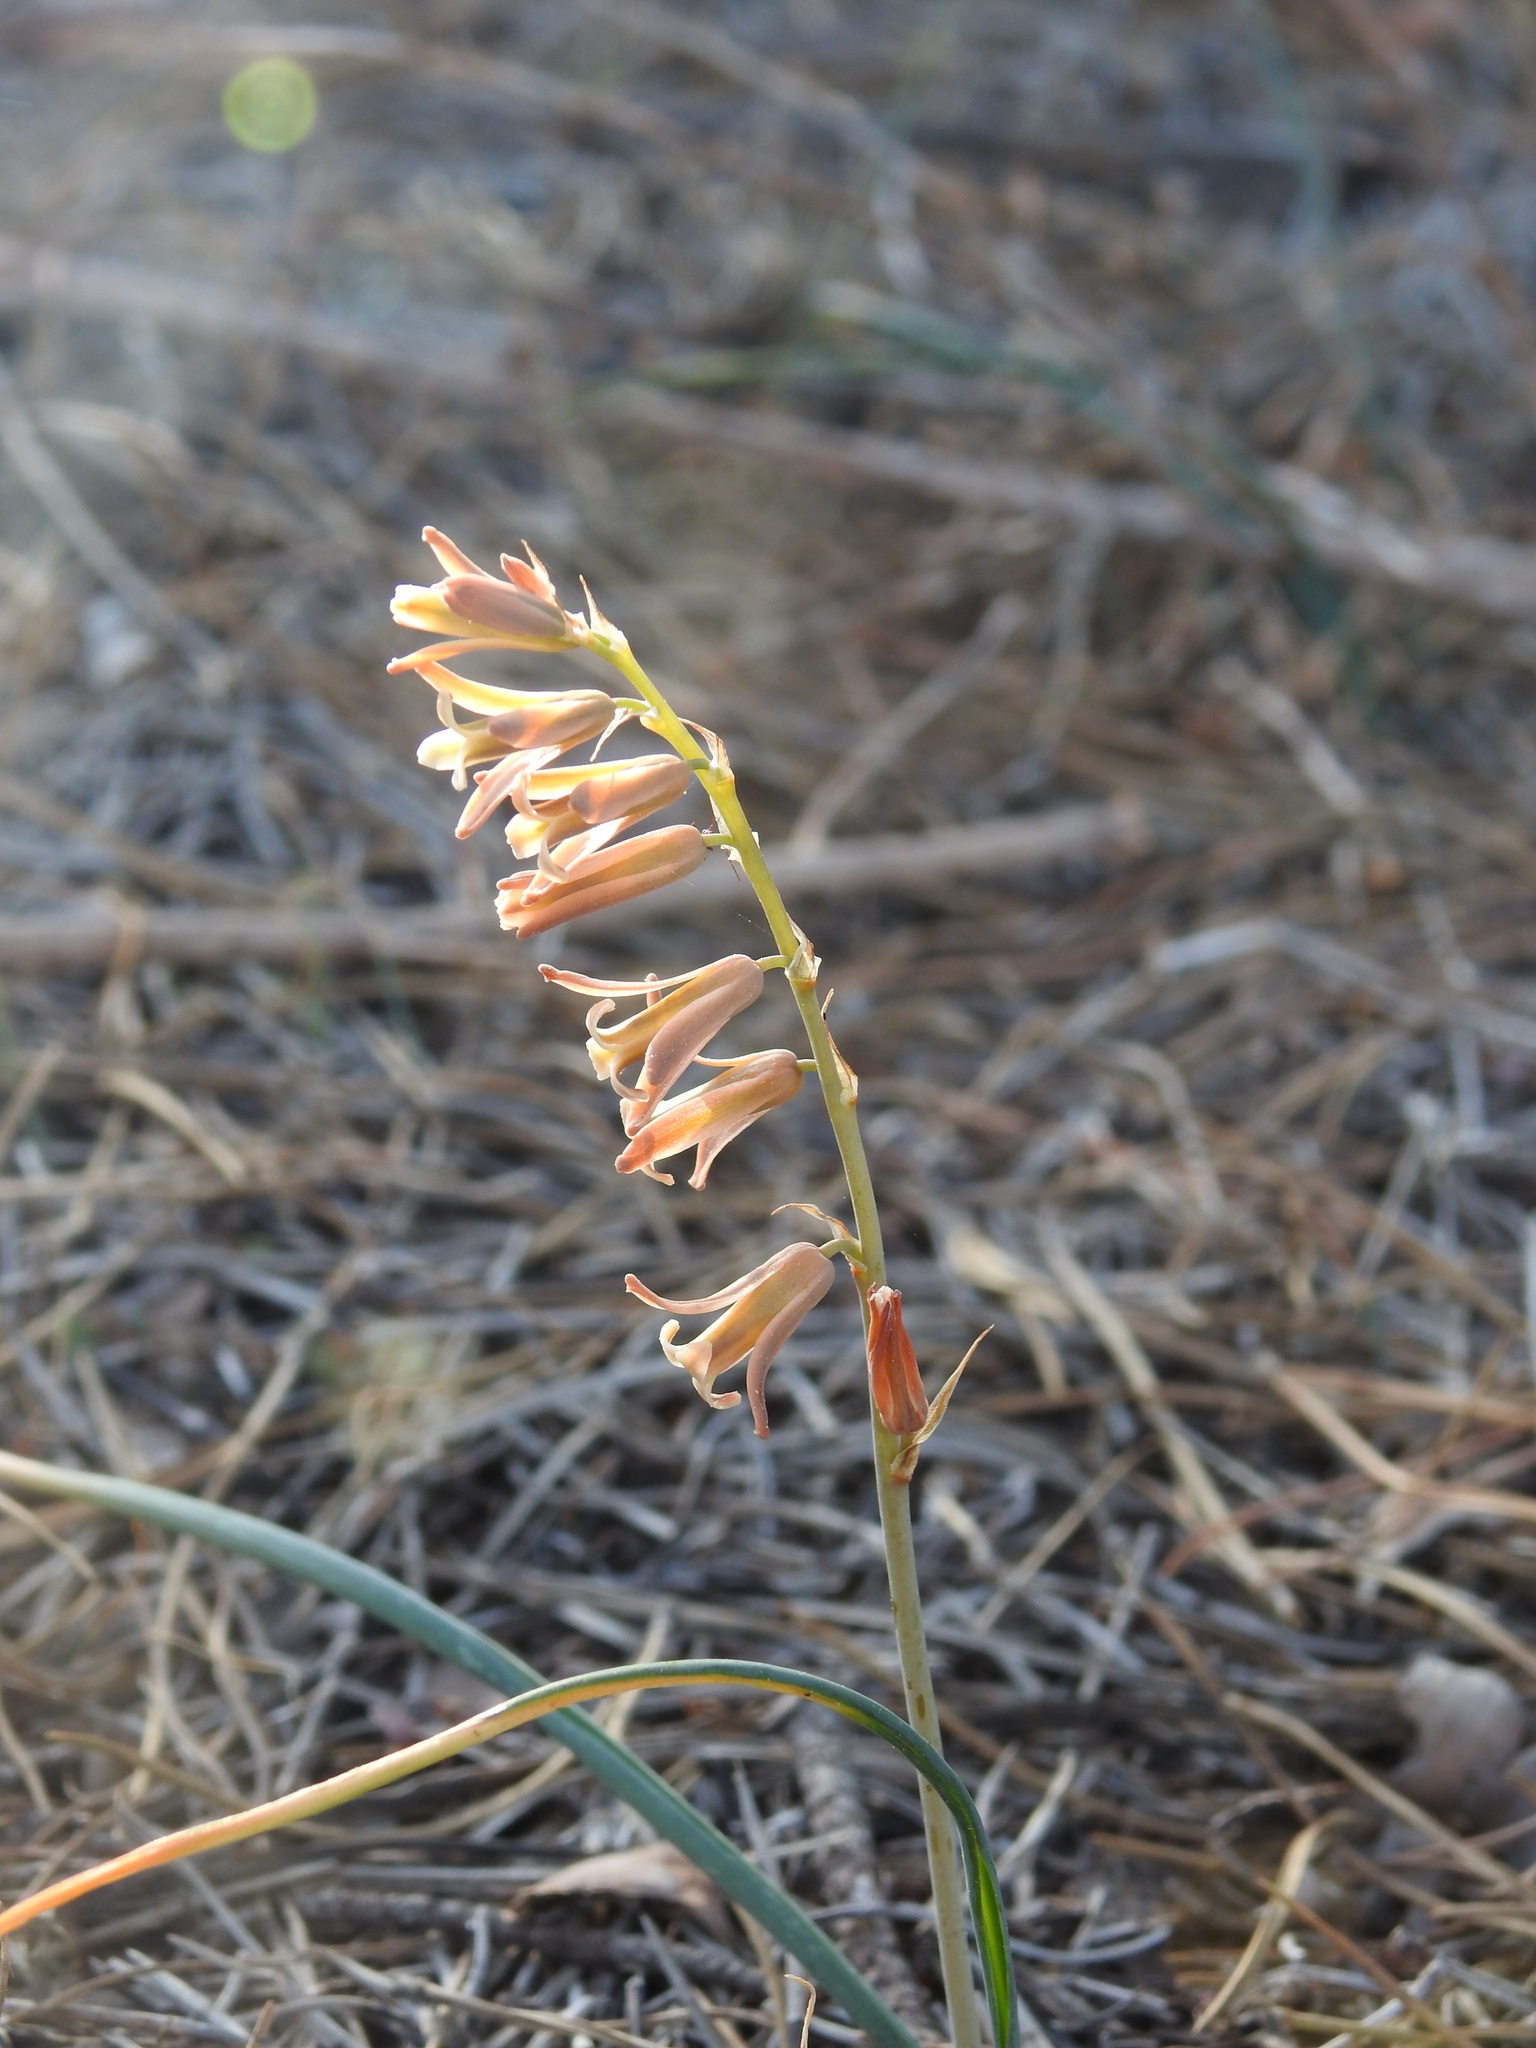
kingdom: Plantae
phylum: Tracheophyta
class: Liliopsida
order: Asparagales
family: Asparagaceae
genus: Dipcadi
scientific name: Dipcadi serotinum
